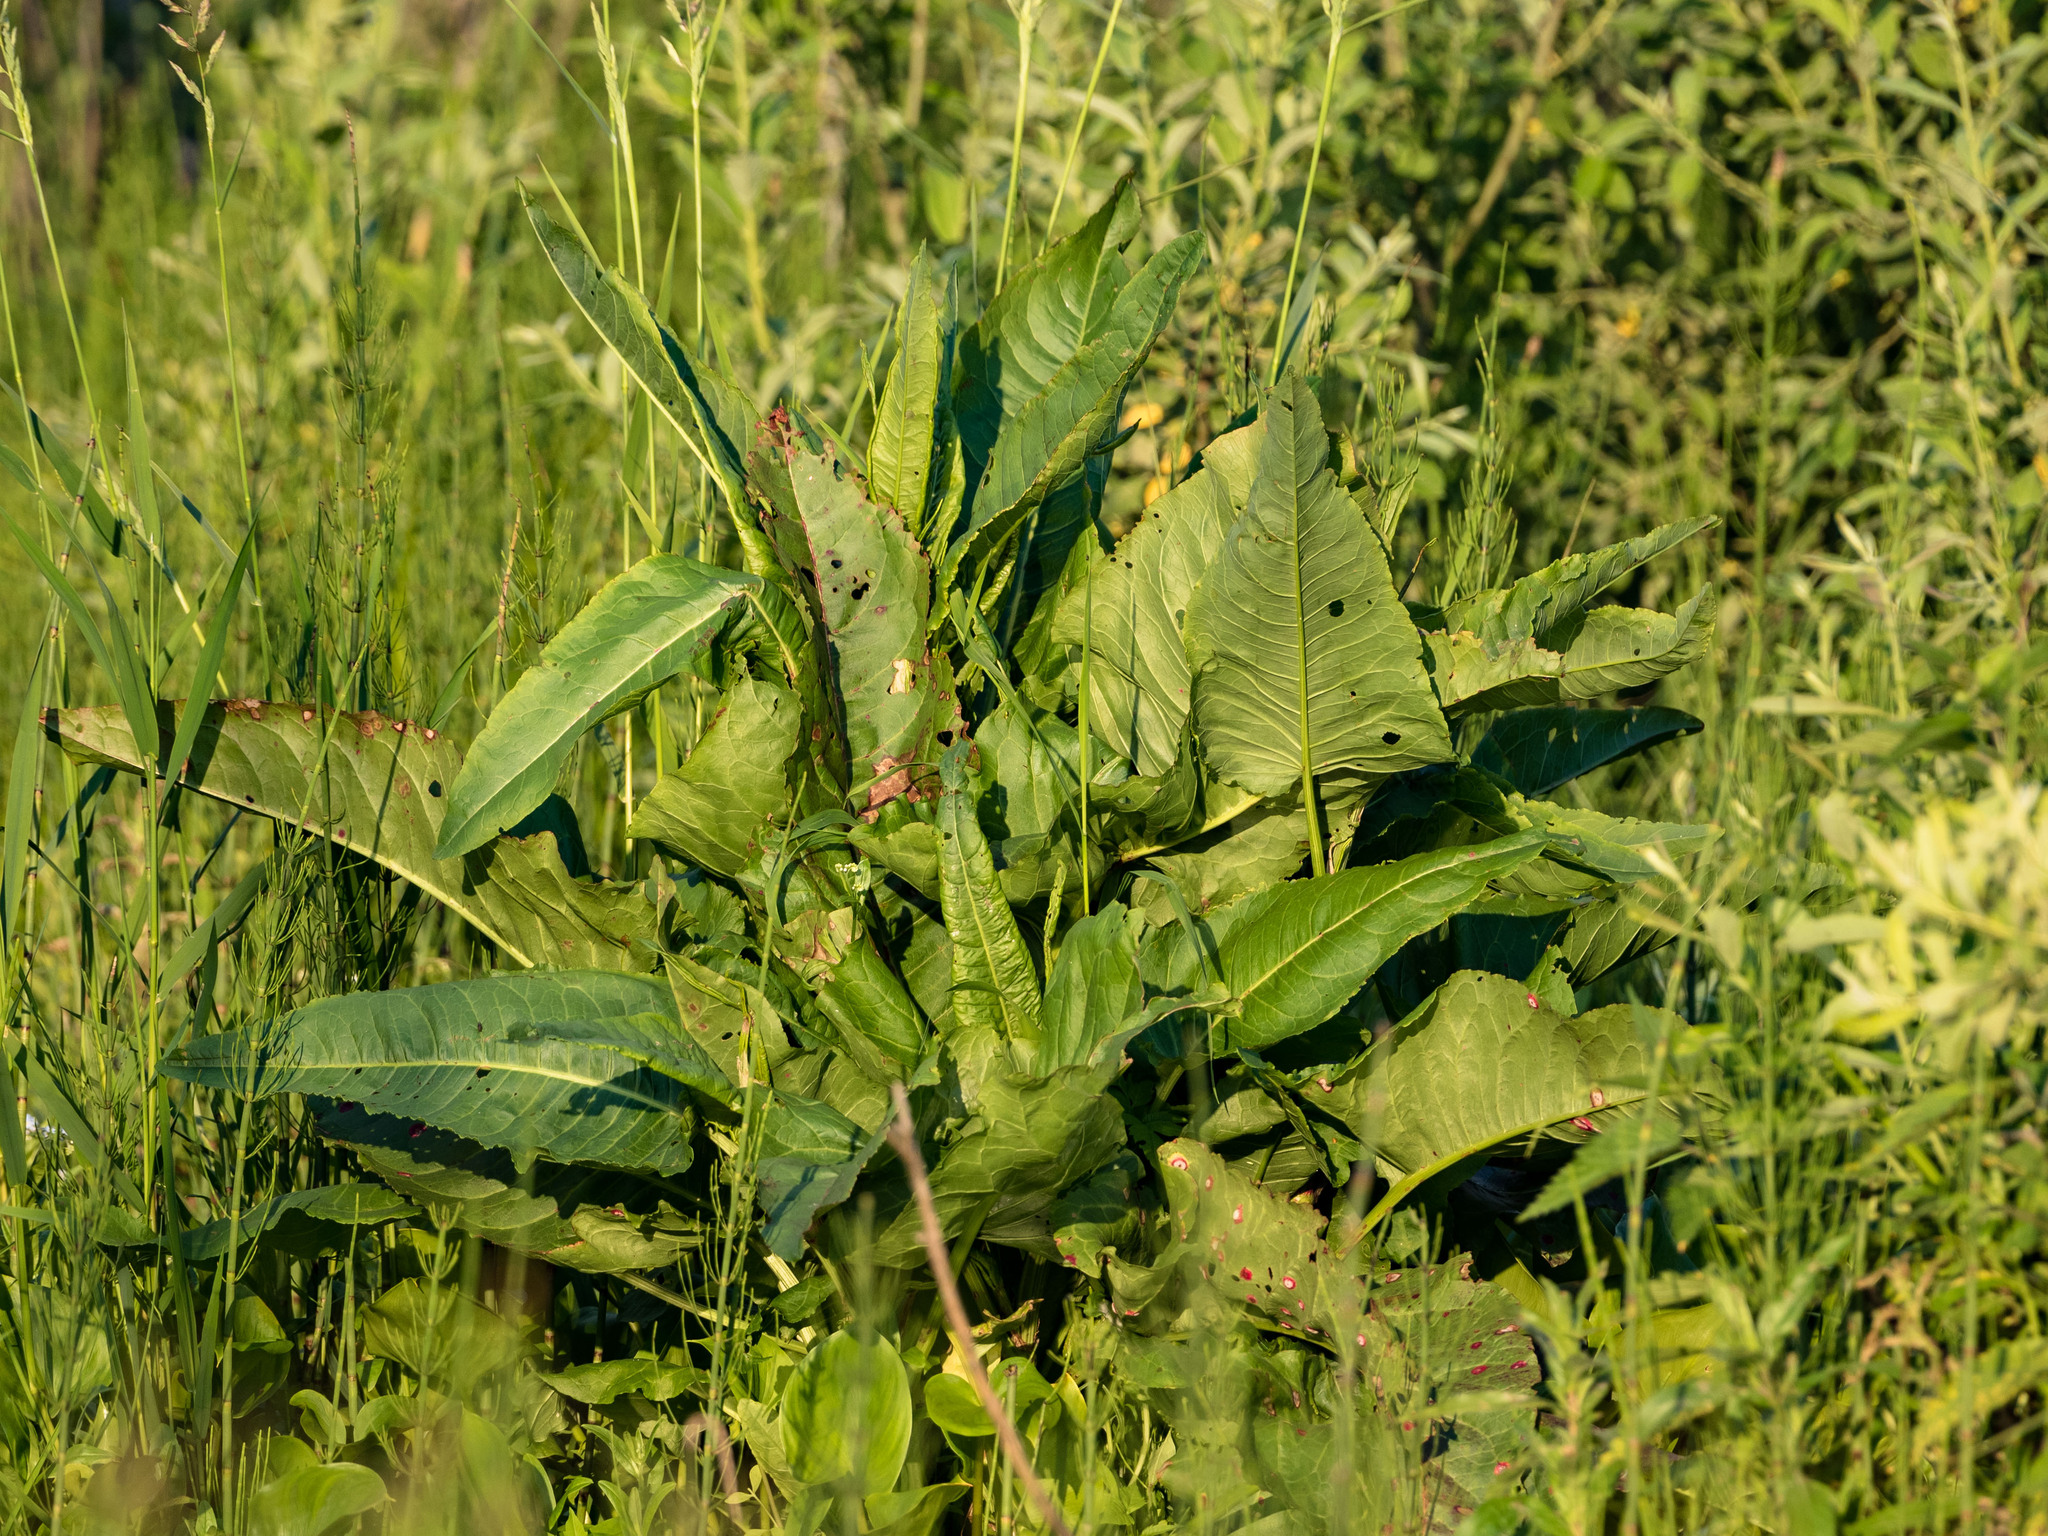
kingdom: Plantae
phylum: Tracheophyta
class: Magnoliopsida
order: Caryophyllales
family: Polygonaceae
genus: Rumex
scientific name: Rumex aquaticus
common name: Scottish dock
